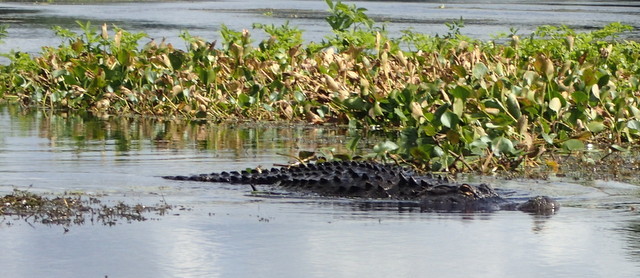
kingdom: Animalia
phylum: Chordata
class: Crocodylia
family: Alligatoridae
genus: Alligator
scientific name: Alligator mississippiensis
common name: American alligator
